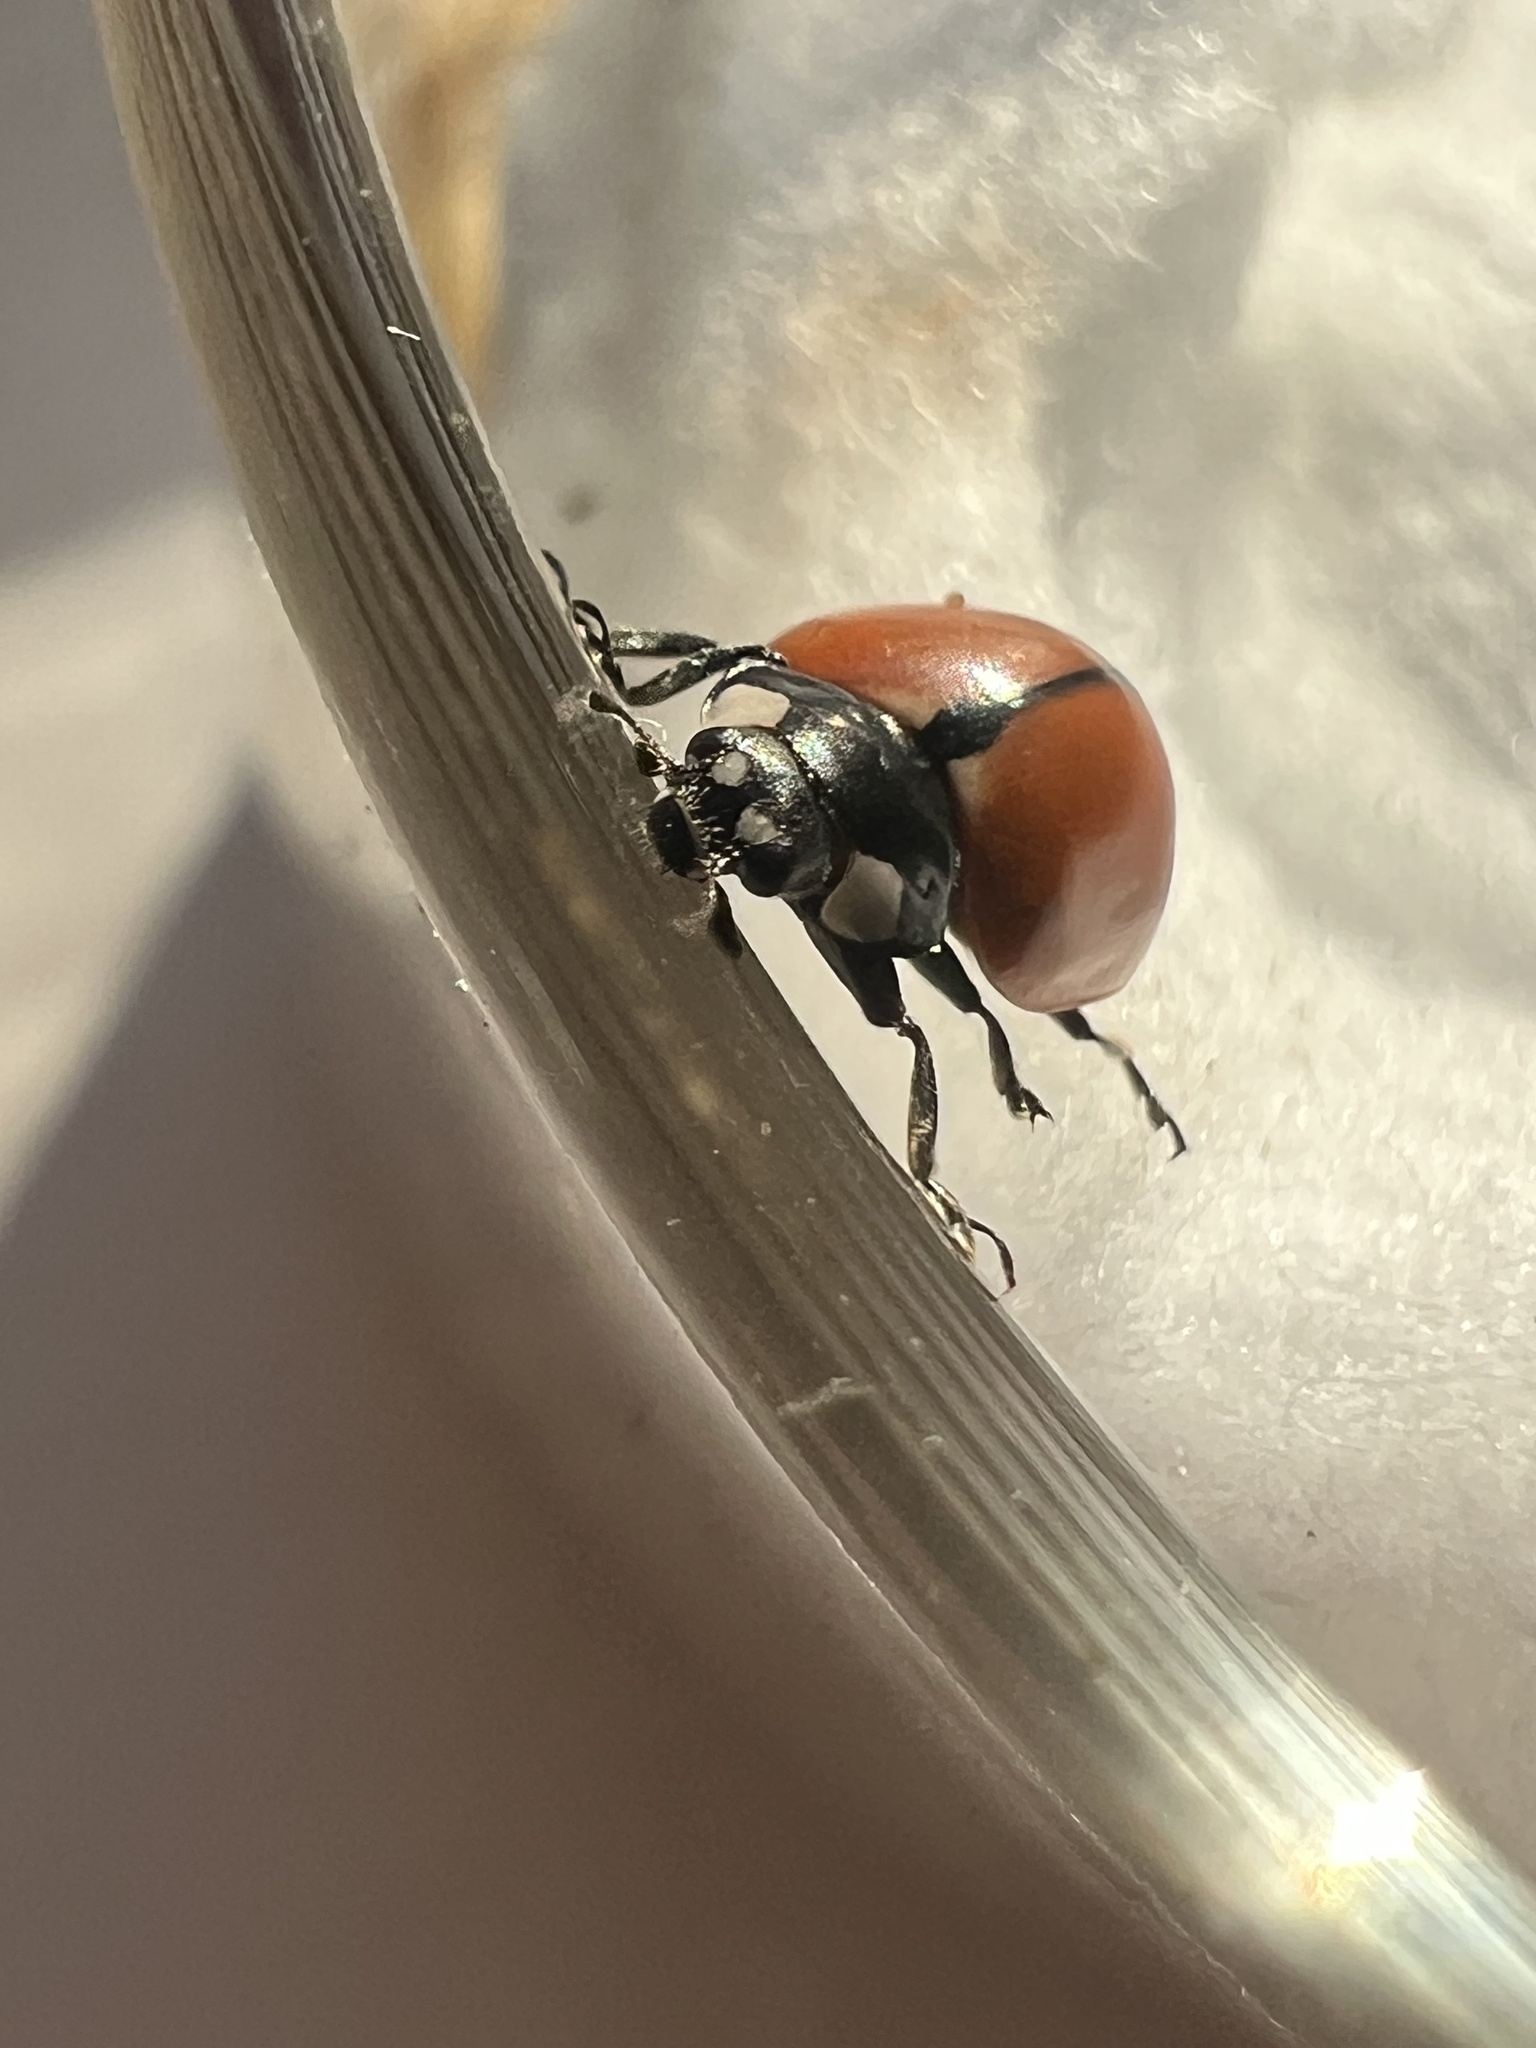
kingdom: Animalia
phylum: Arthropoda
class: Insecta
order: Coleoptera
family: Coccinellidae
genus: Coccinella
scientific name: Coccinella californica
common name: Lady beetle
